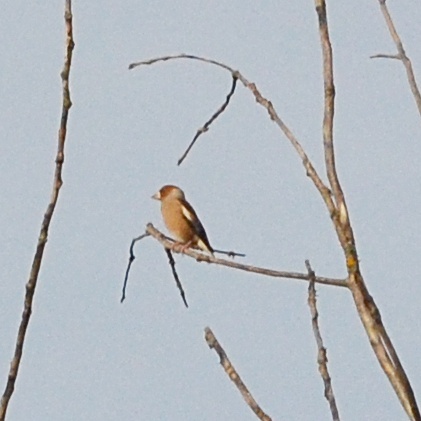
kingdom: Animalia
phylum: Chordata
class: Aves
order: Passeriformes
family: Fringillidae
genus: Coccothraustes
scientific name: Coccothraustes coccothraustes
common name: Hawfinch
